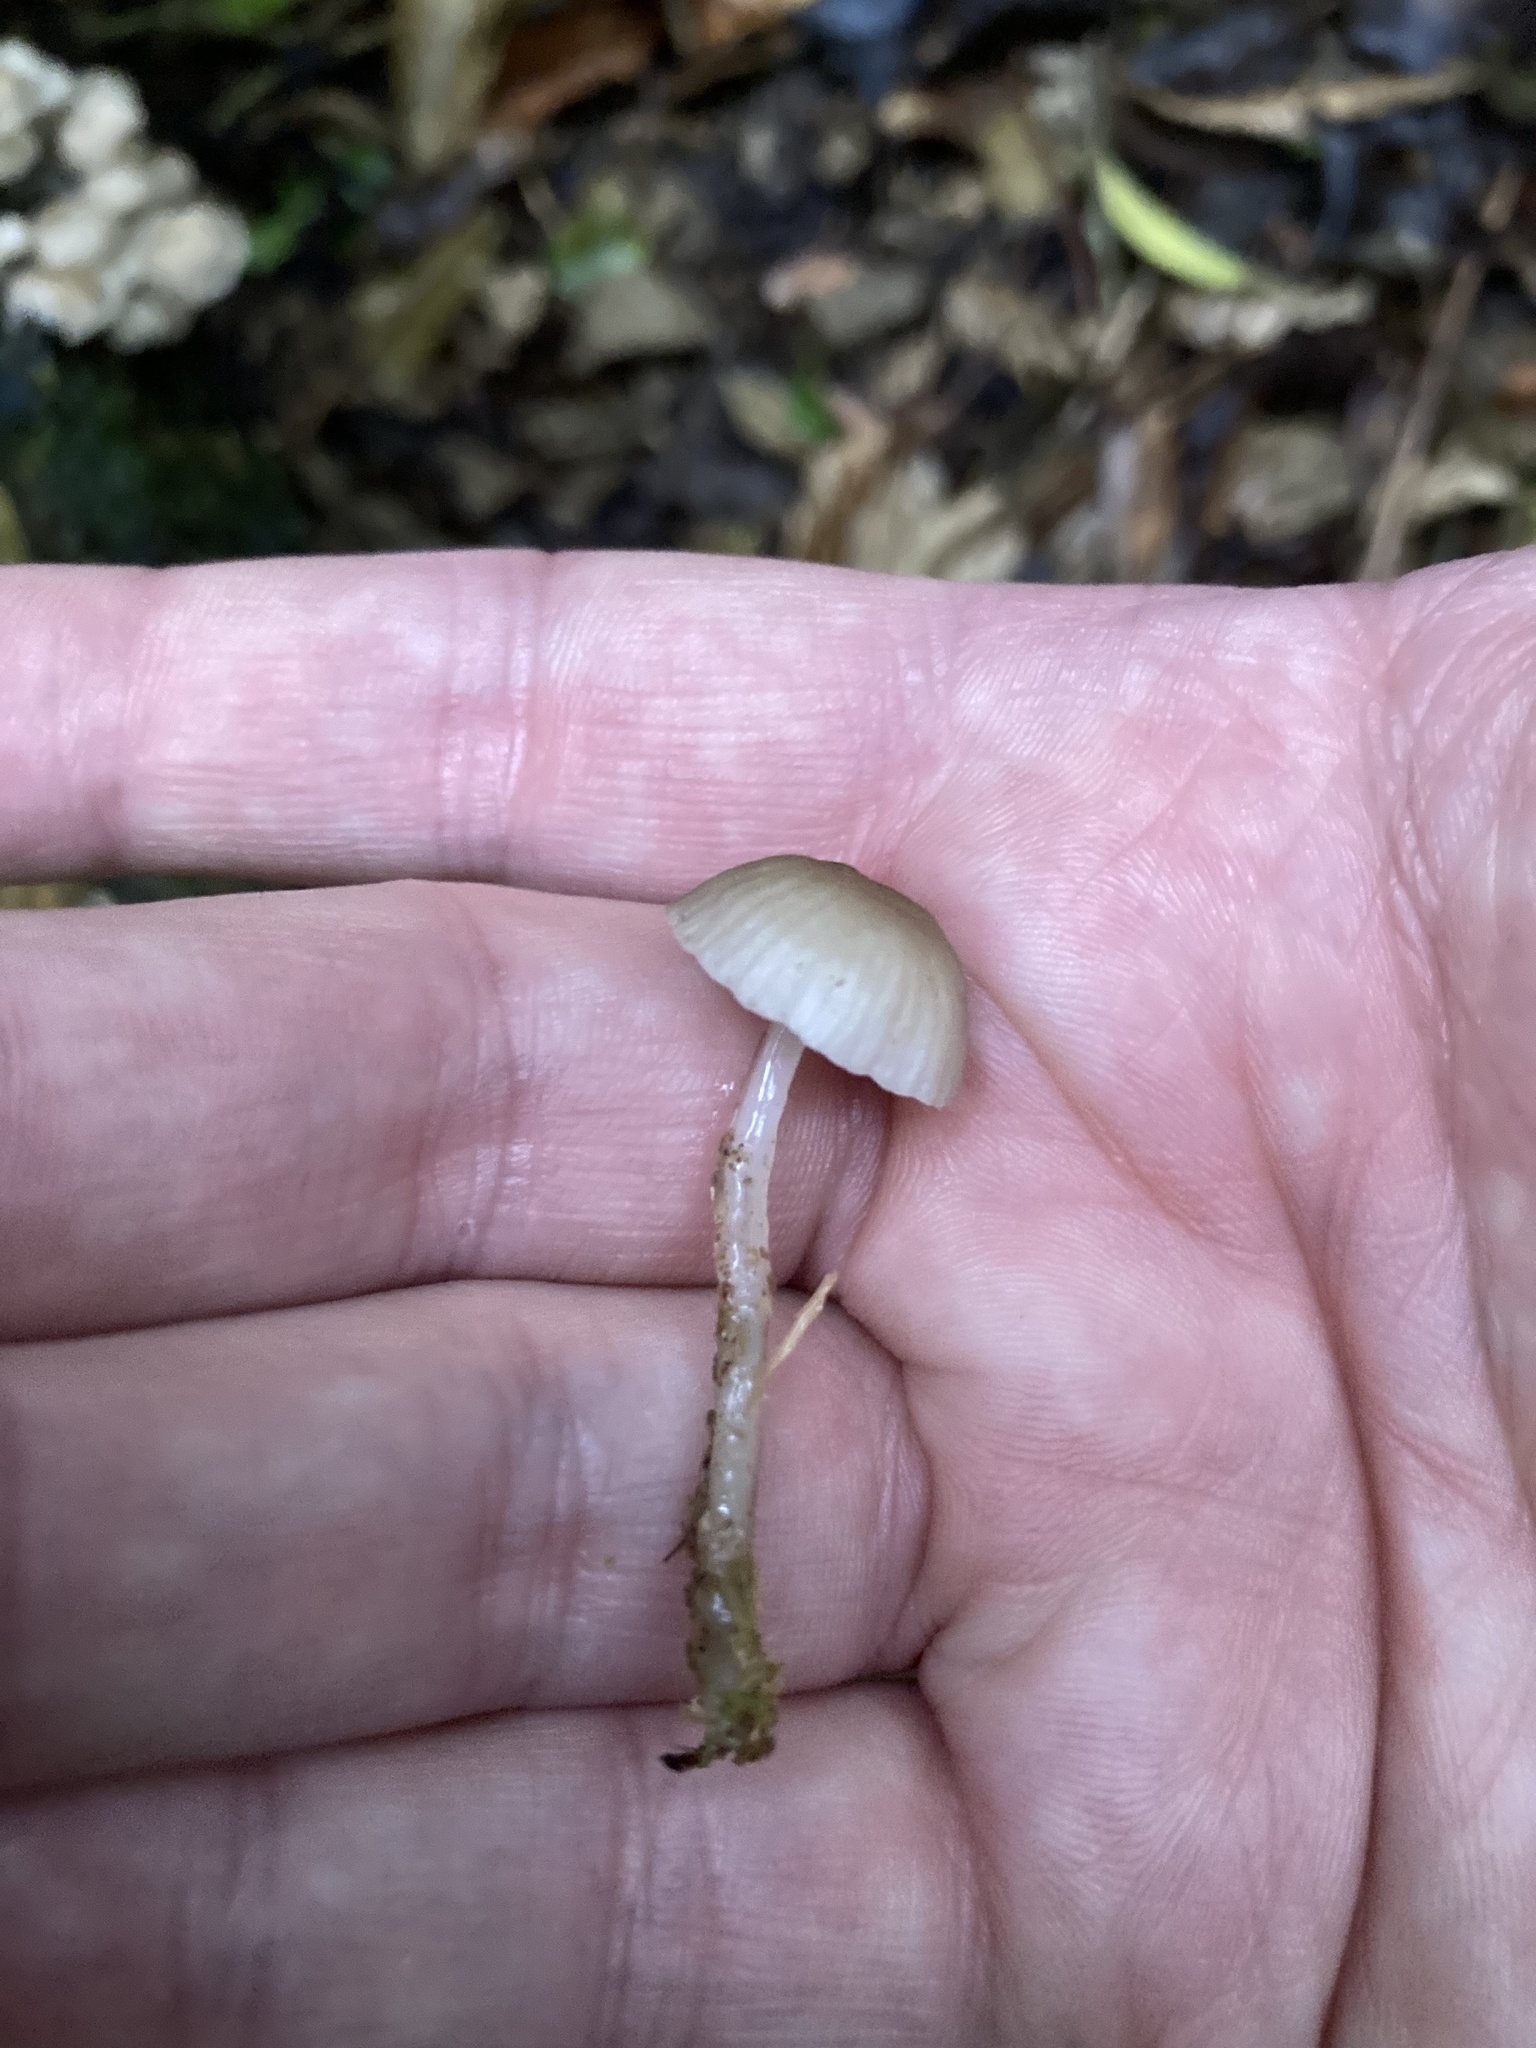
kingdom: Fungi
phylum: Basidiomycota
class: Agaricomycetes
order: Agaricales
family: Mycenaceae
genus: Roridomyces
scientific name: Roridomyces austrororidus
